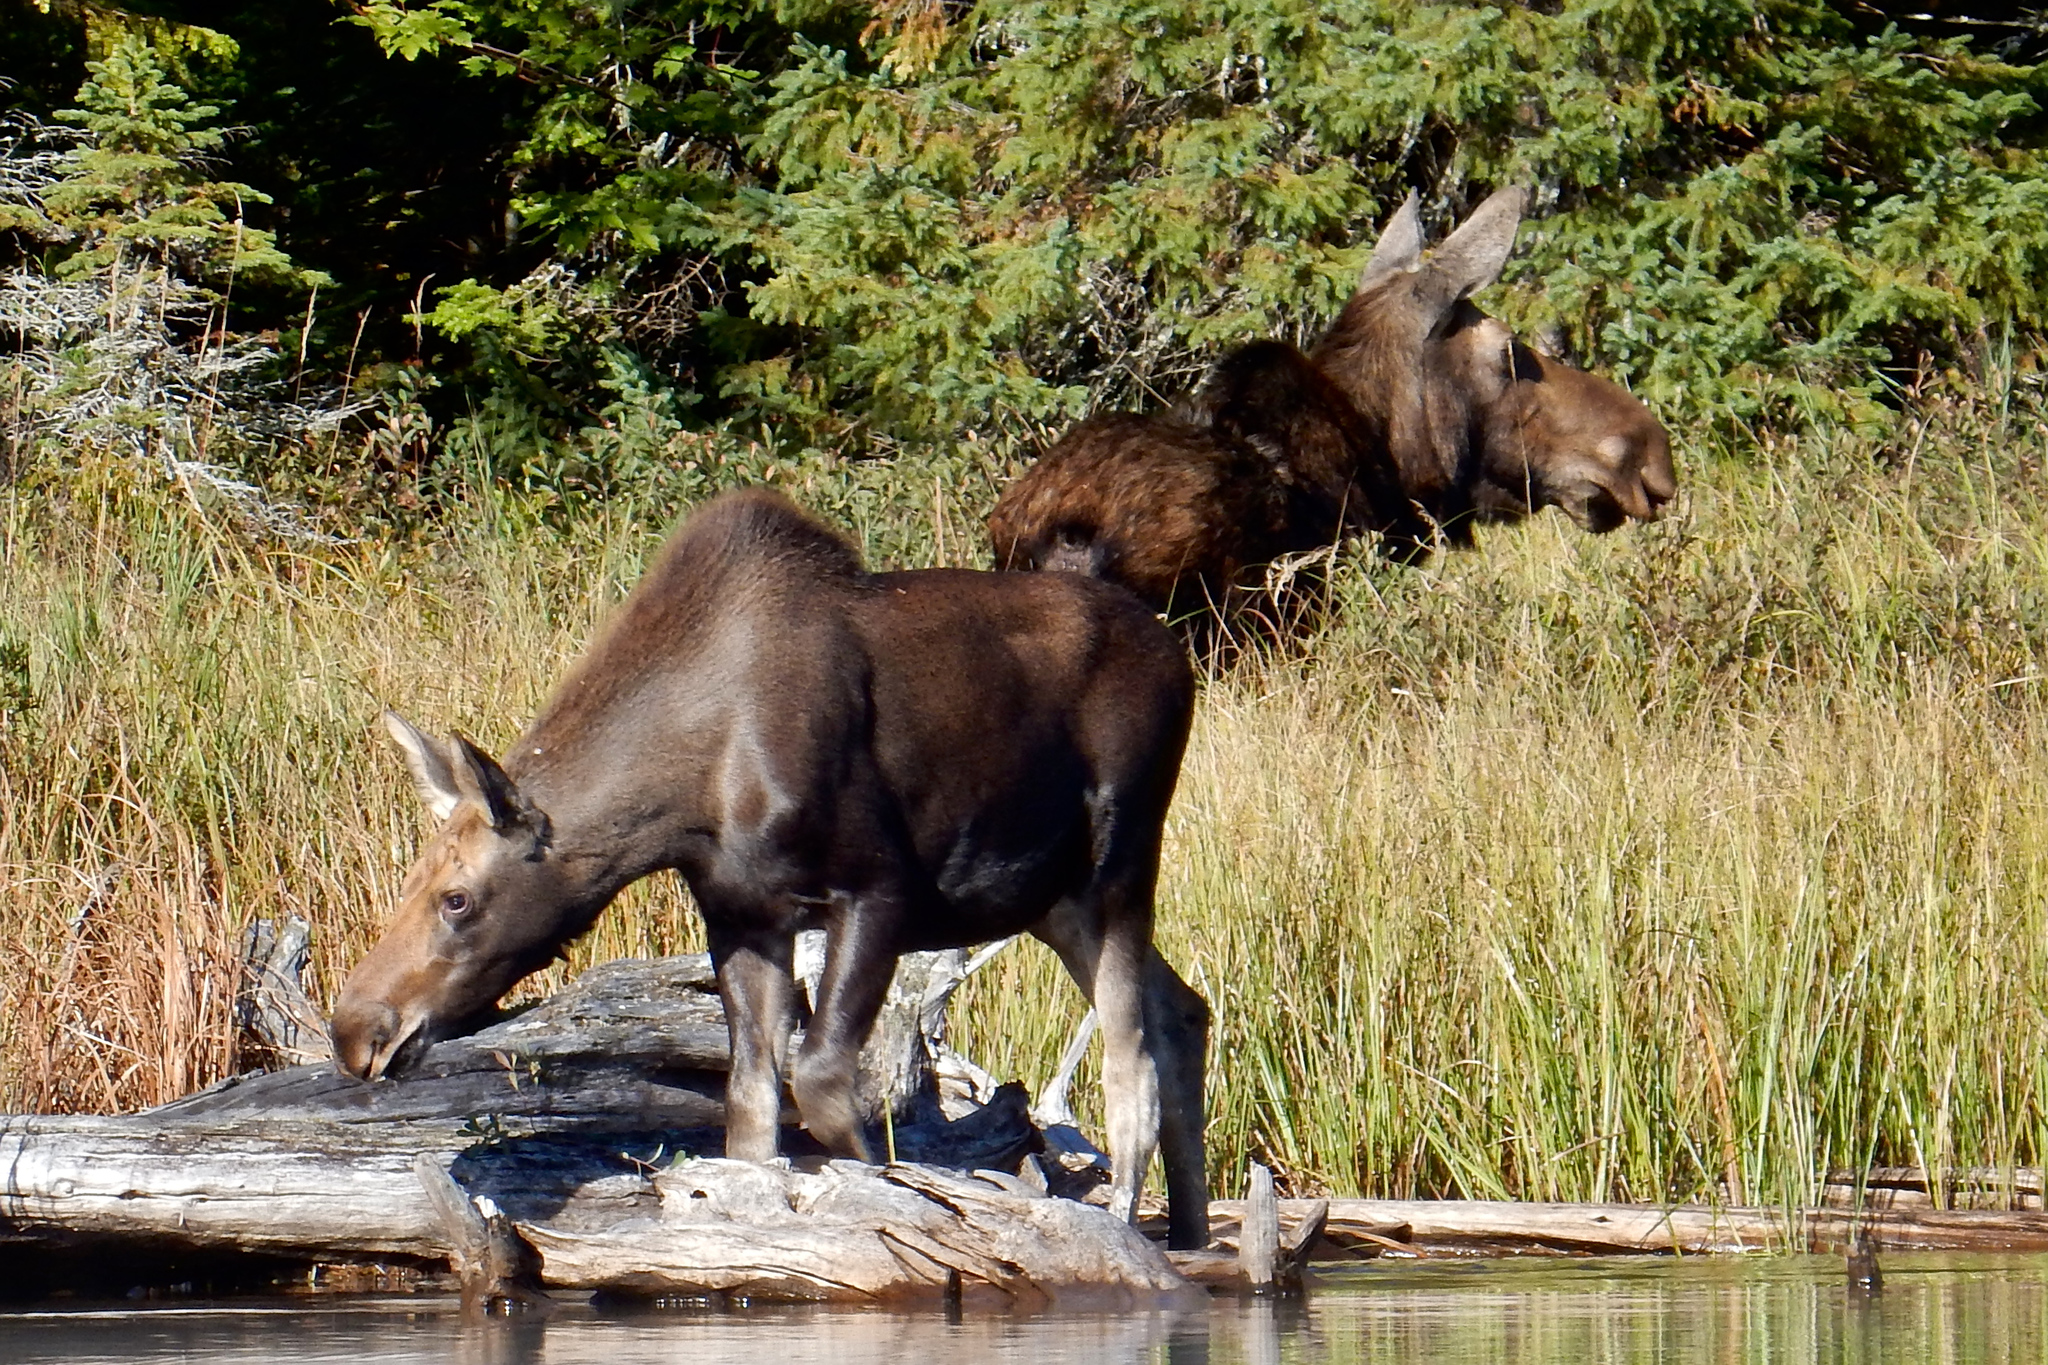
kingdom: Animalia
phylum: Chordata
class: Mammalia
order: Artiodactyla
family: Cervidae
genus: Alces
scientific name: Alces alces
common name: Moose
